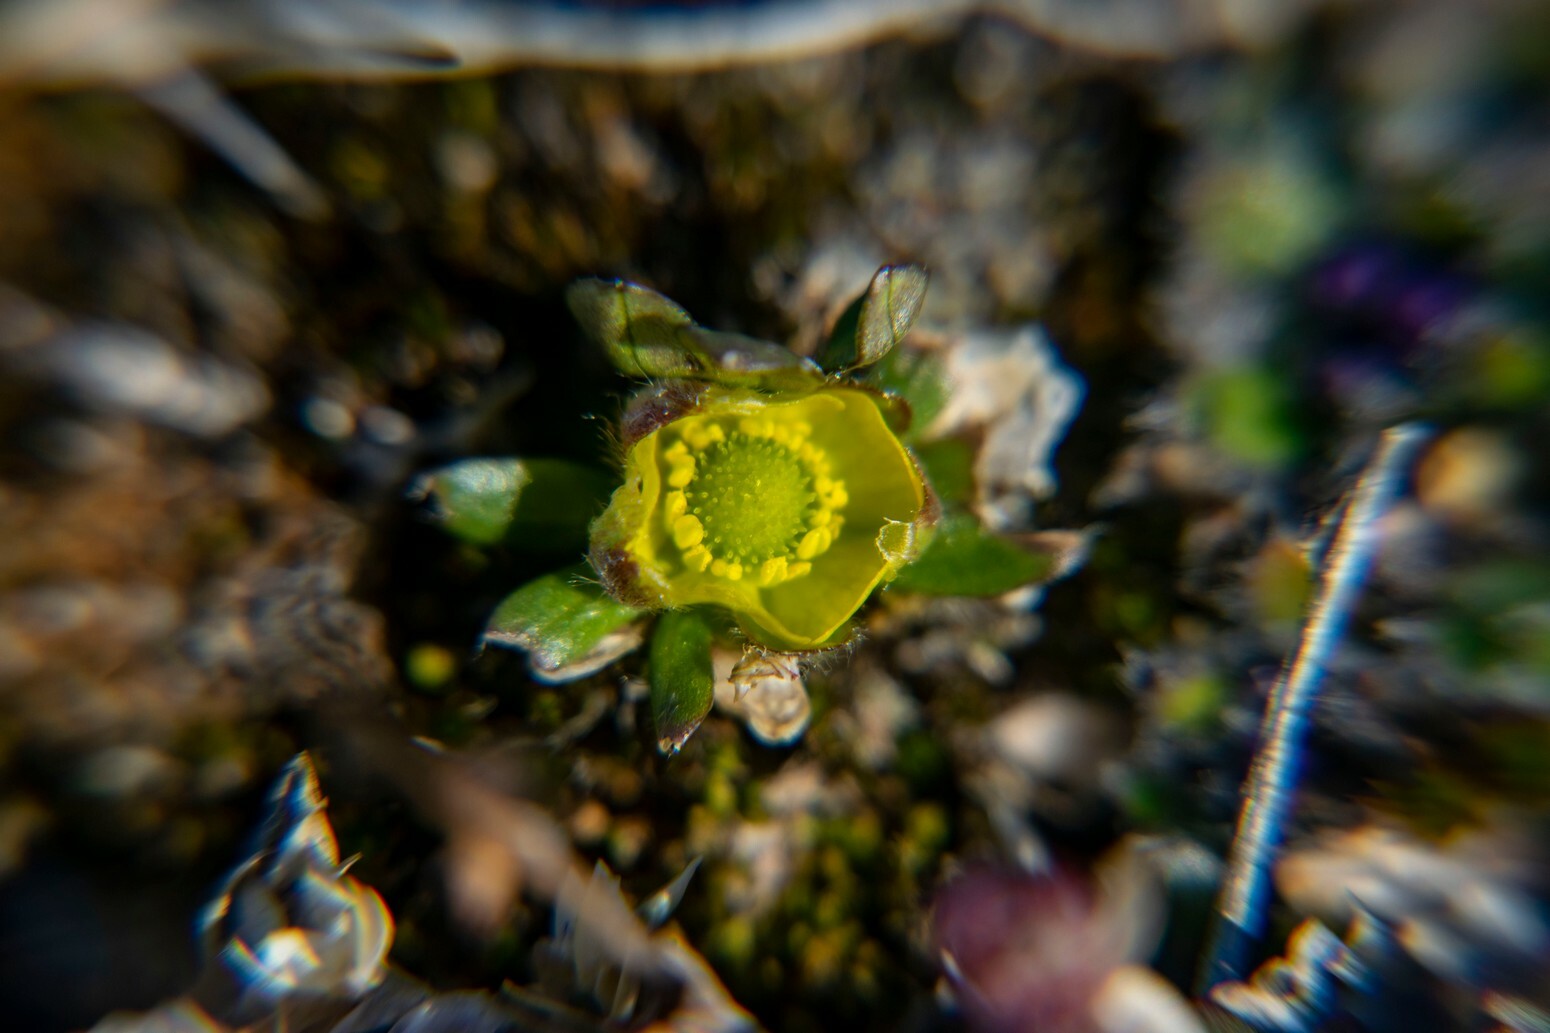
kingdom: Plantae
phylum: Tracheophyta
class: Magnoliopsida
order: Ranunculales
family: Ranunculaceae
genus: Ranunculus
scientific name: Ranunculus nivalis
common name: Snow buttercup
